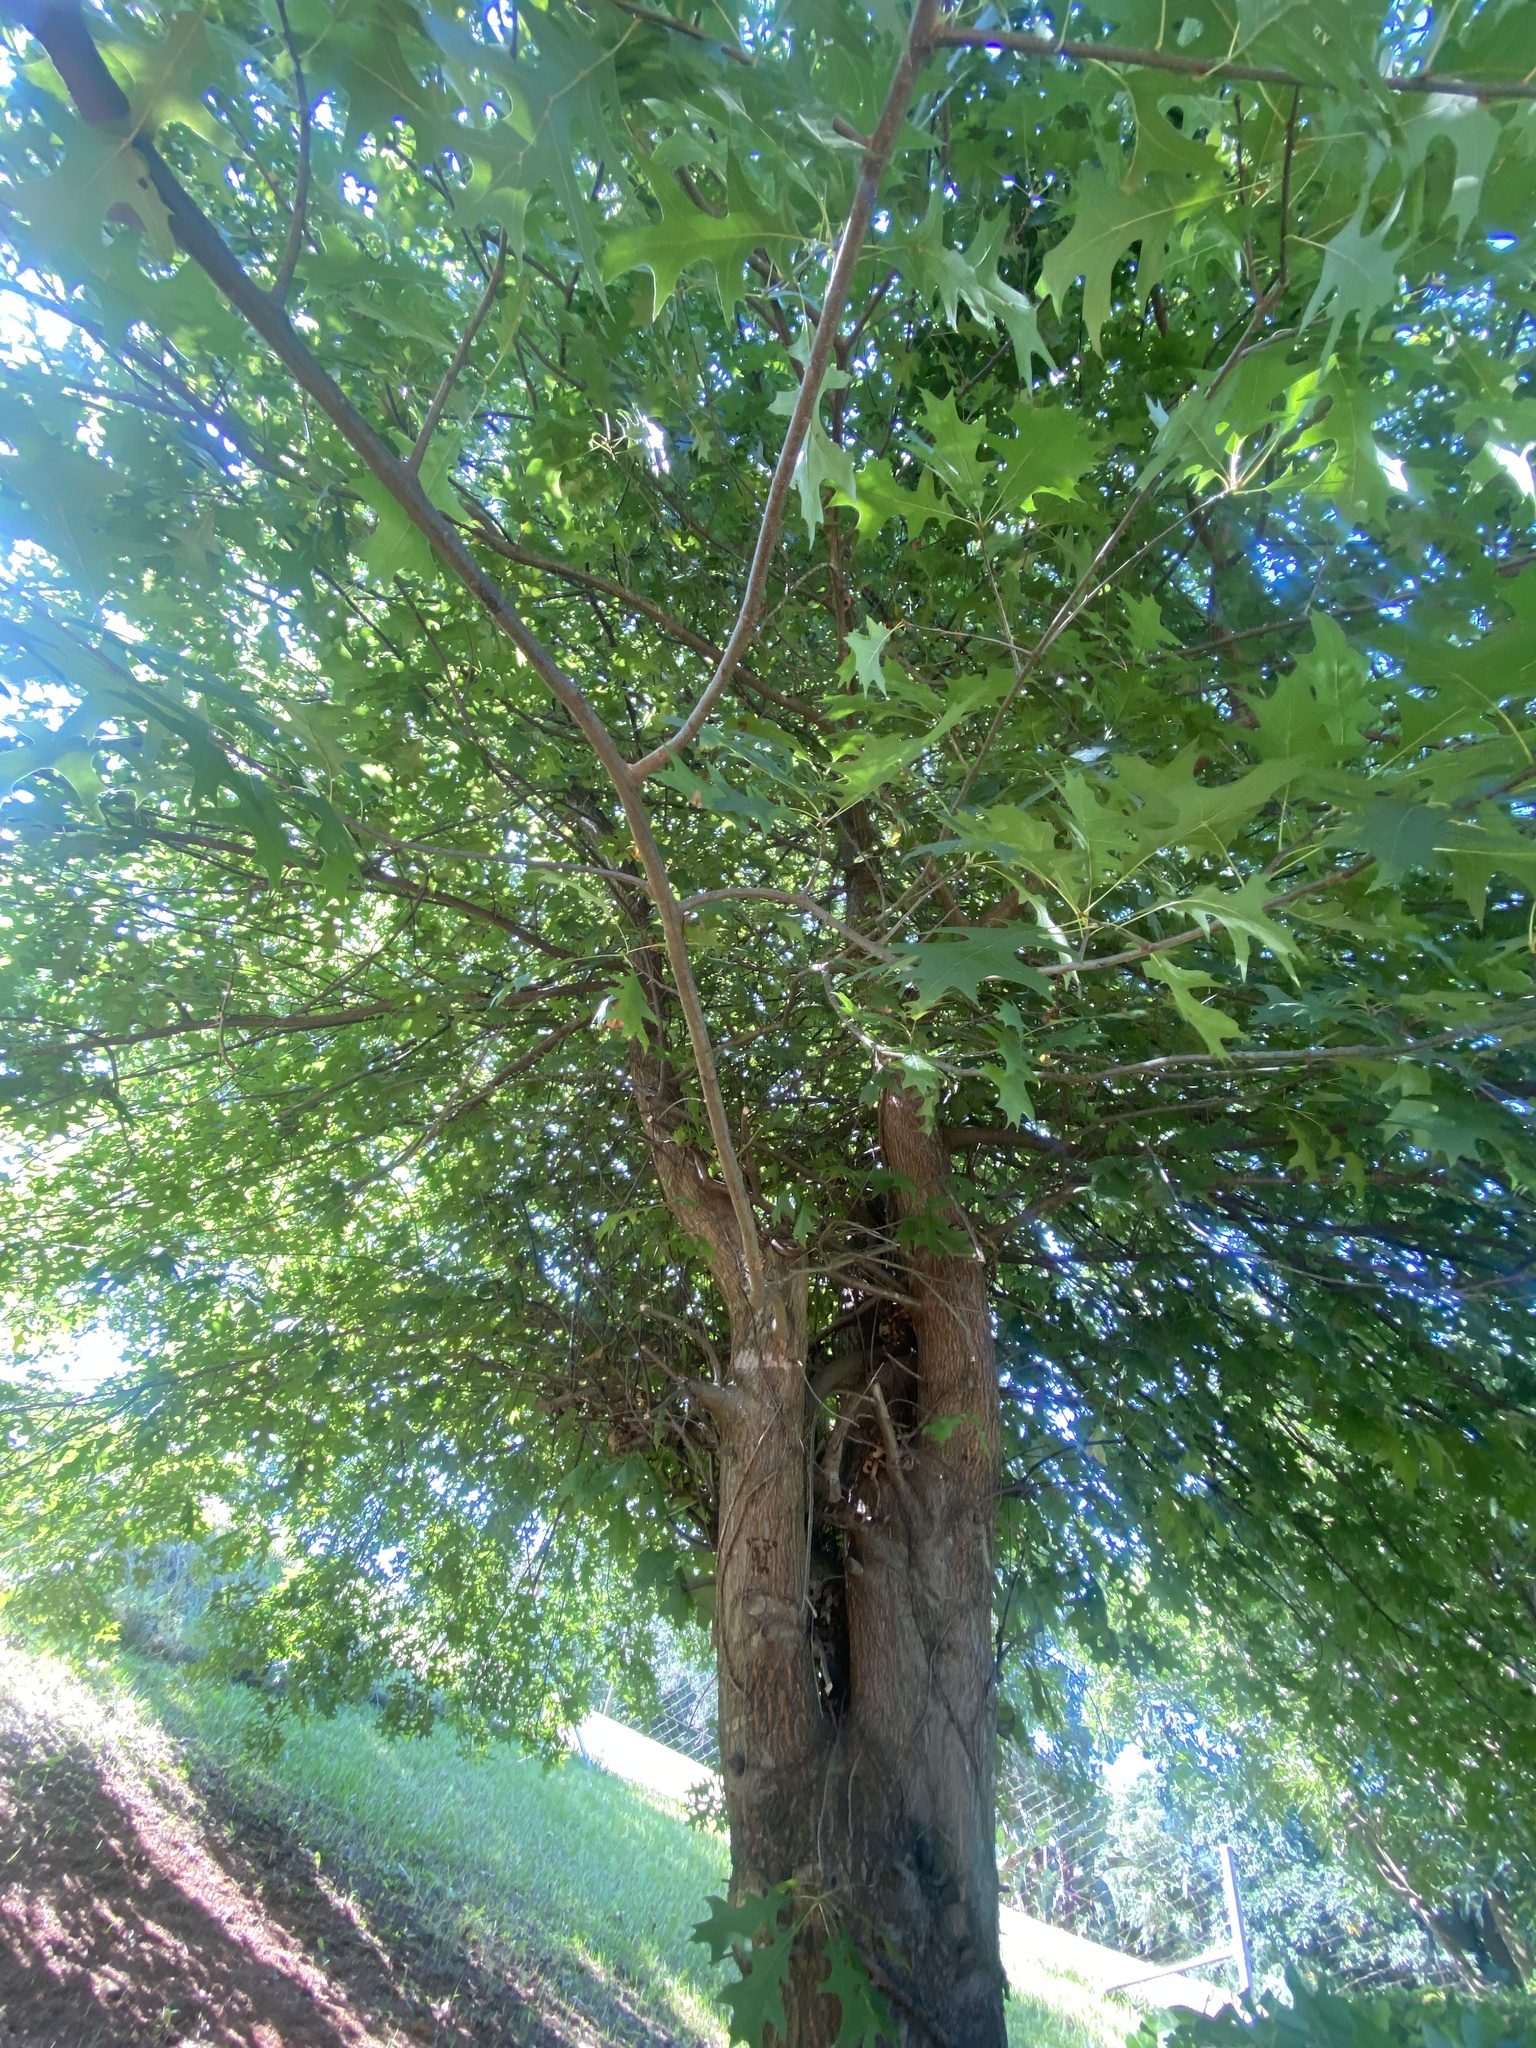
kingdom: Plantae
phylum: Tracheophyta
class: Magnoliopsida
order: Fagales
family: Fagaceae
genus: Quercus
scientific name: Quercus palustris
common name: Pin oak
